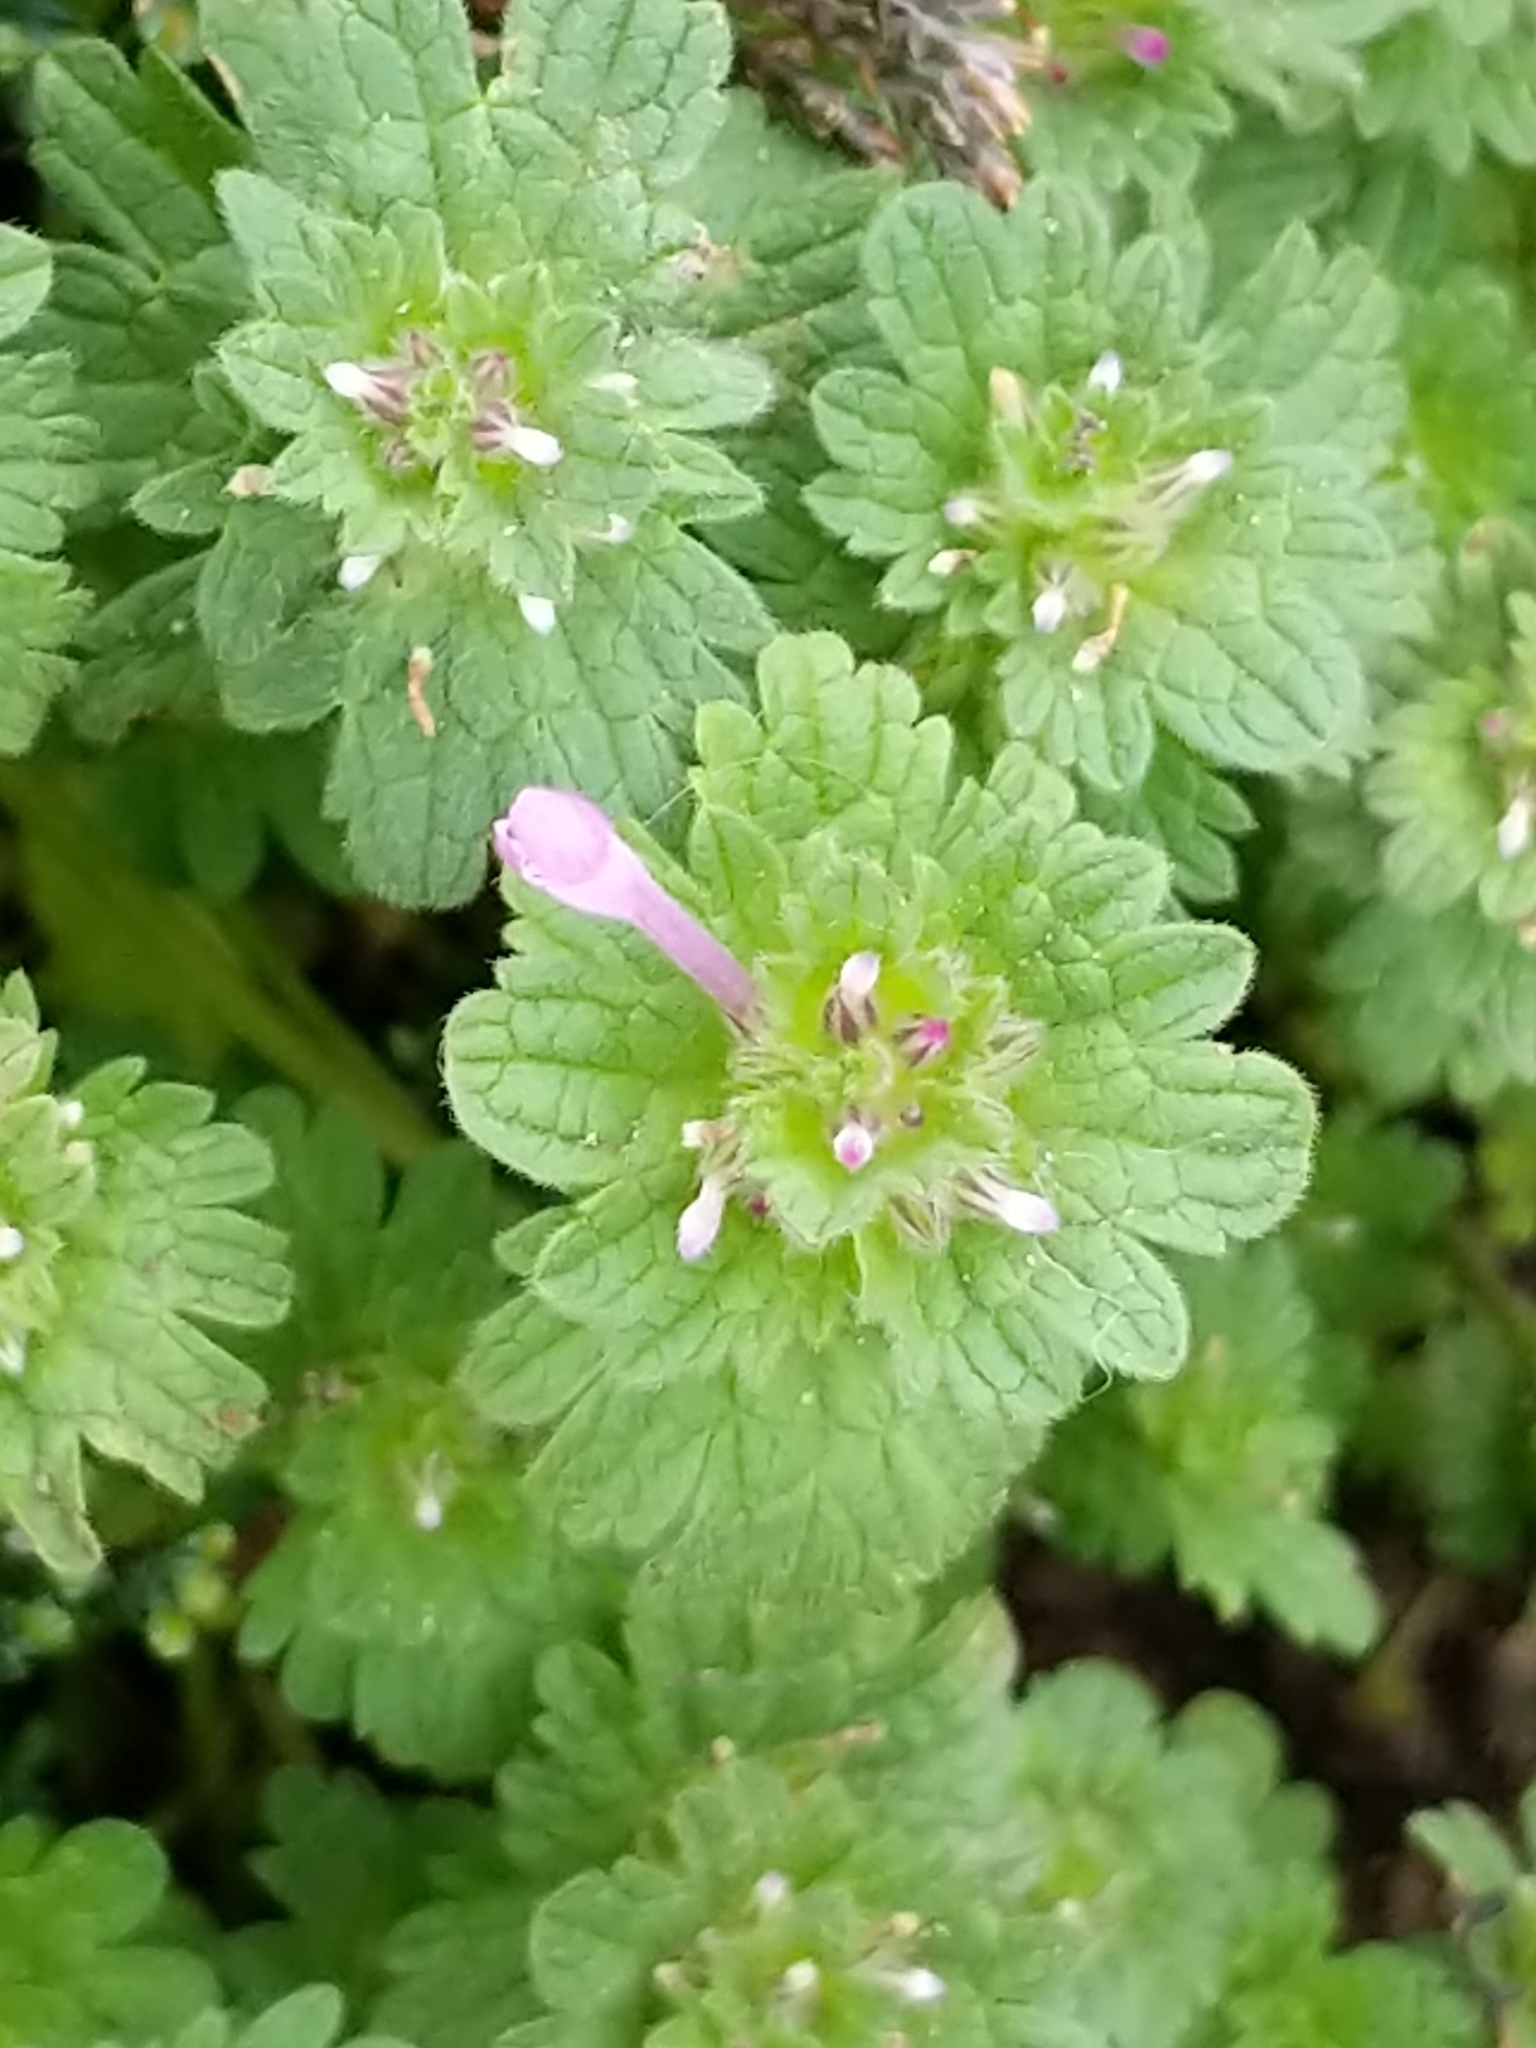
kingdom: Plantae
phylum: Tracheophyta
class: Magnoliopsida
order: Lamiales
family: Lamiaceae
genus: Lamium
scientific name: Lamium amplexicaule
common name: Henbit dead-nettle
